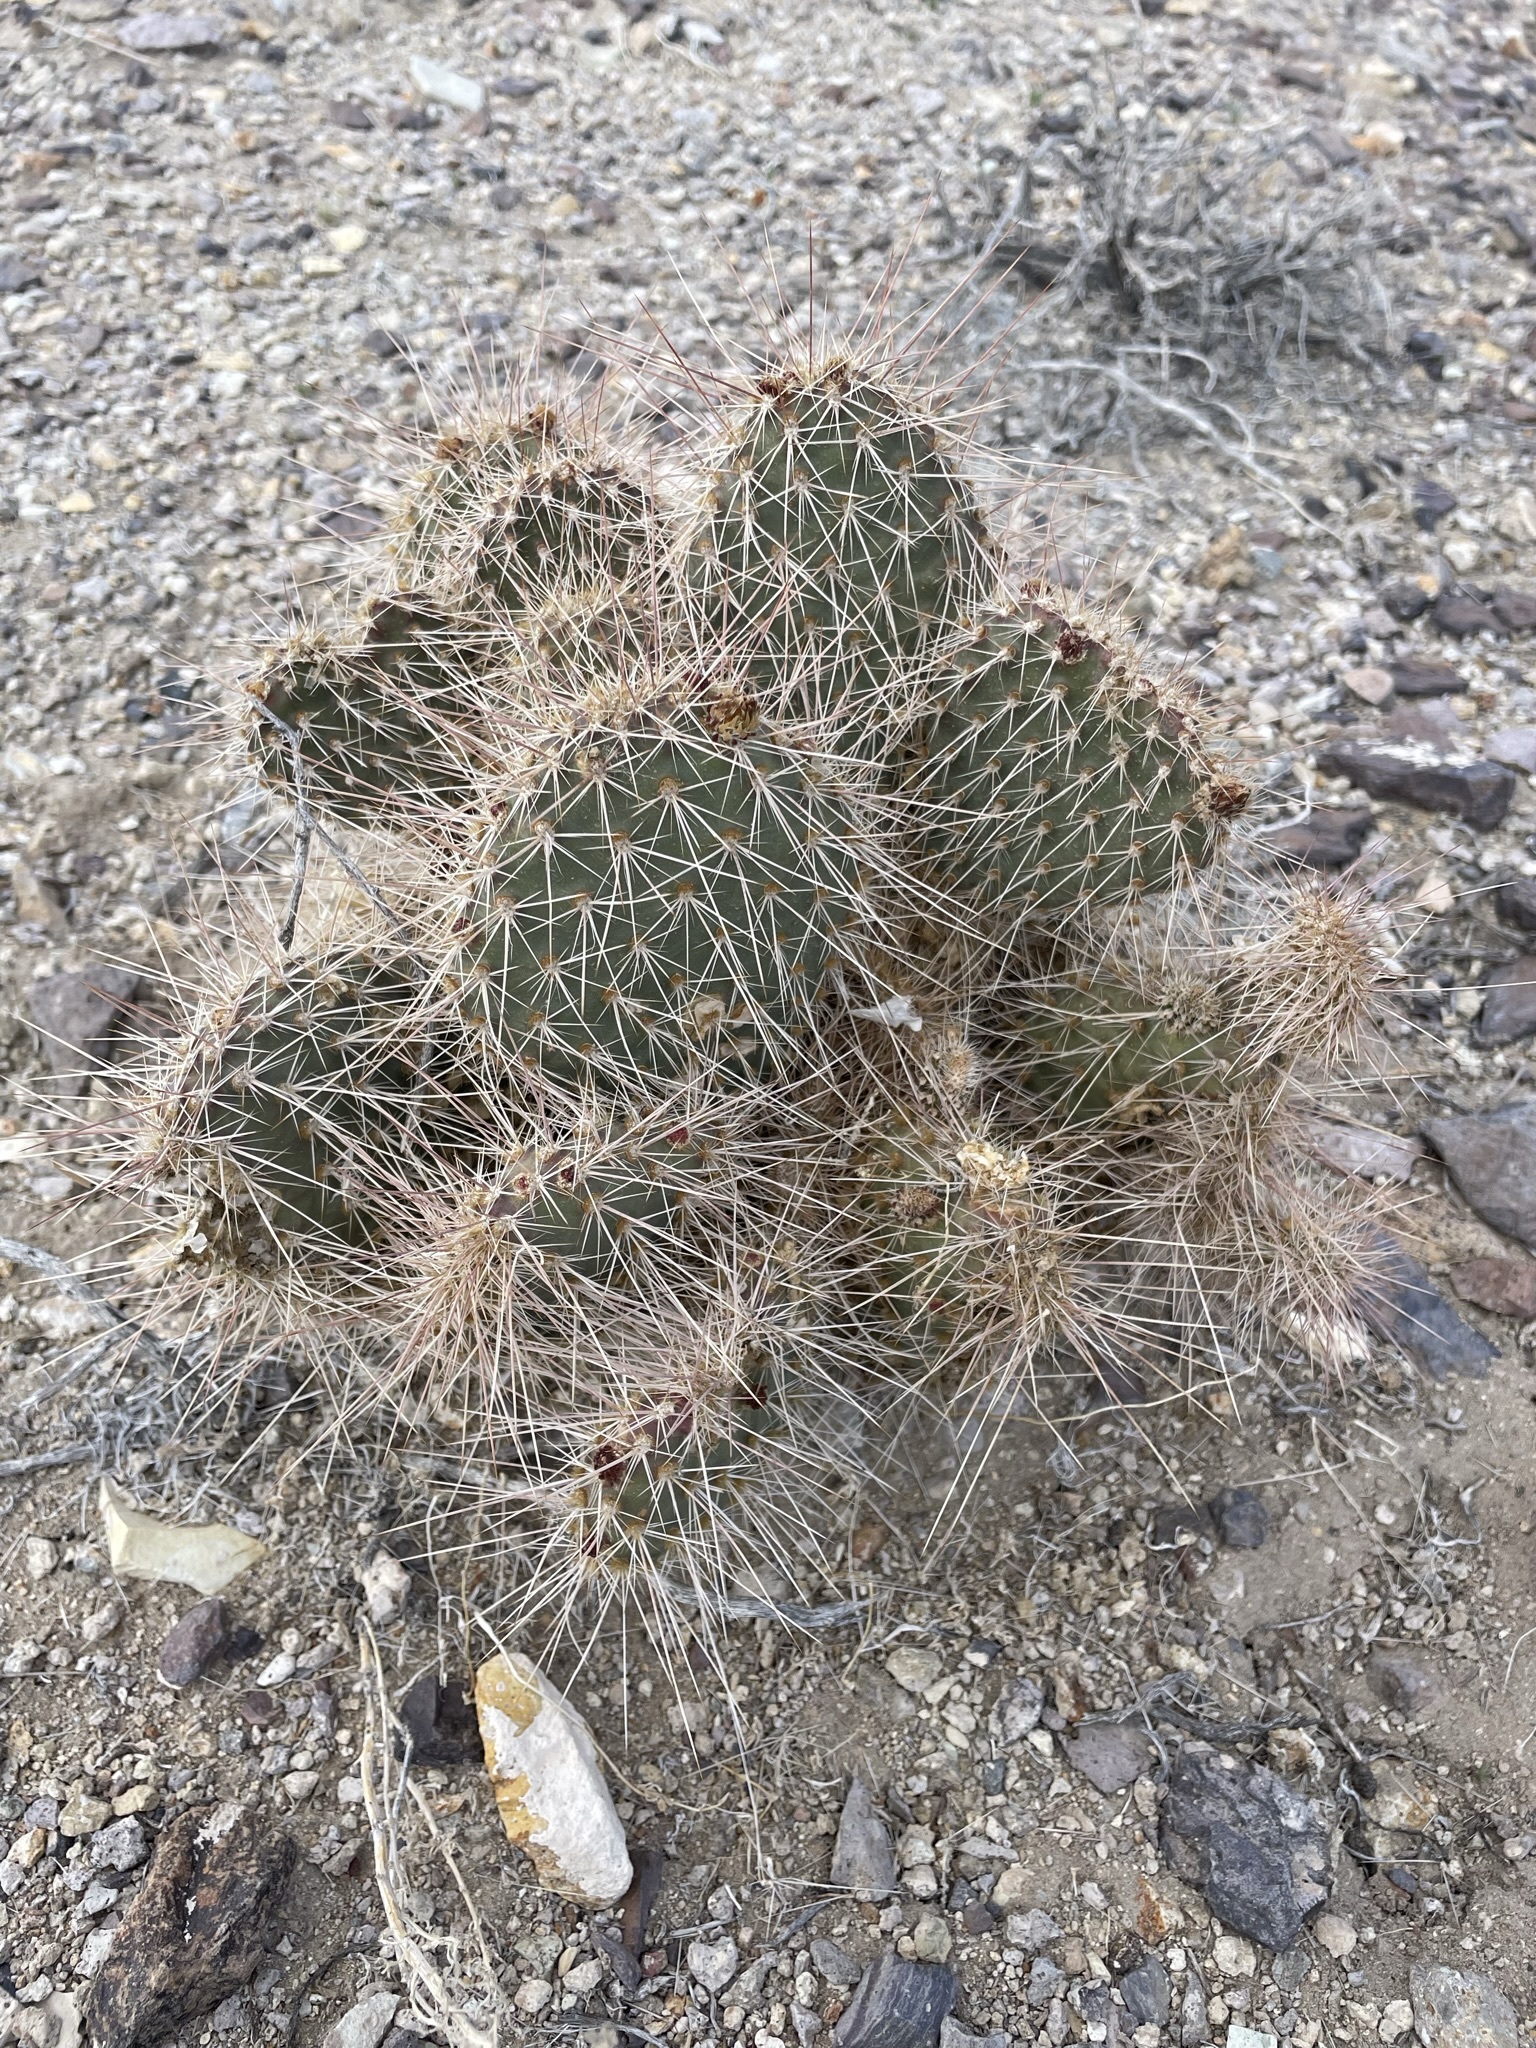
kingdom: Plantae
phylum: Tracheophyta
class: Magnoliopsida
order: Caryophyllales
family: Cactaceae
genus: Opuntia
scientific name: Opuntia polyacantha
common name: Plains prickly-pear
